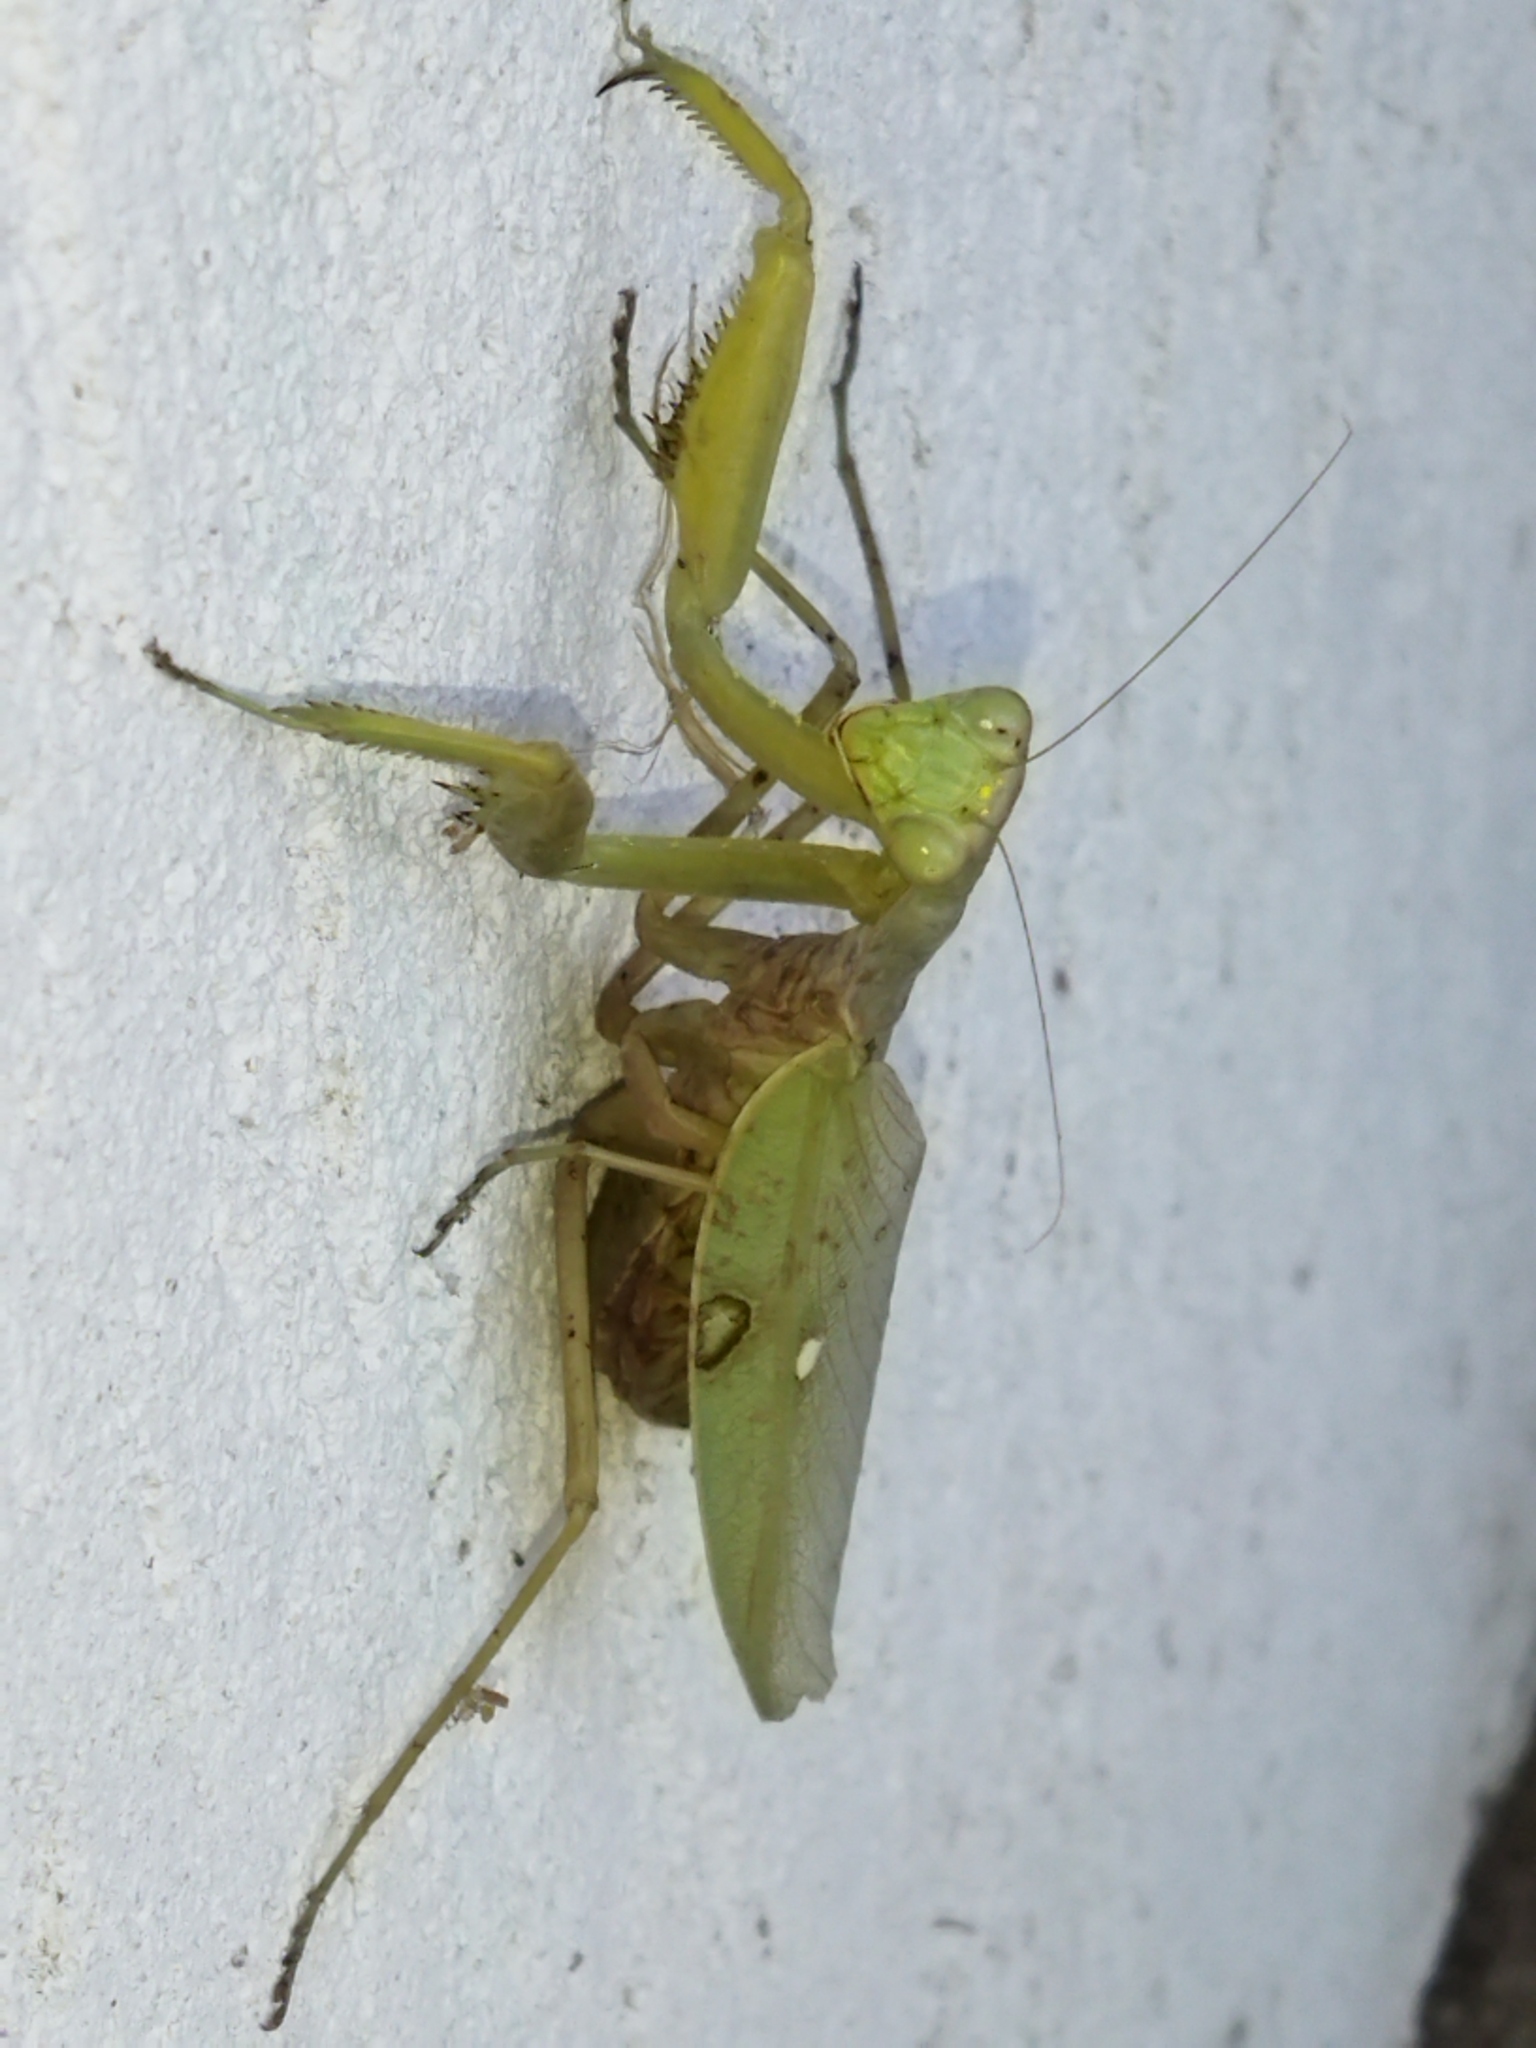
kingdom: Animalia
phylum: Arthropoda
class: Insecta
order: Mantodea
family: Mantidae
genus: Hierodula
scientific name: Hierodula transcaucasica
